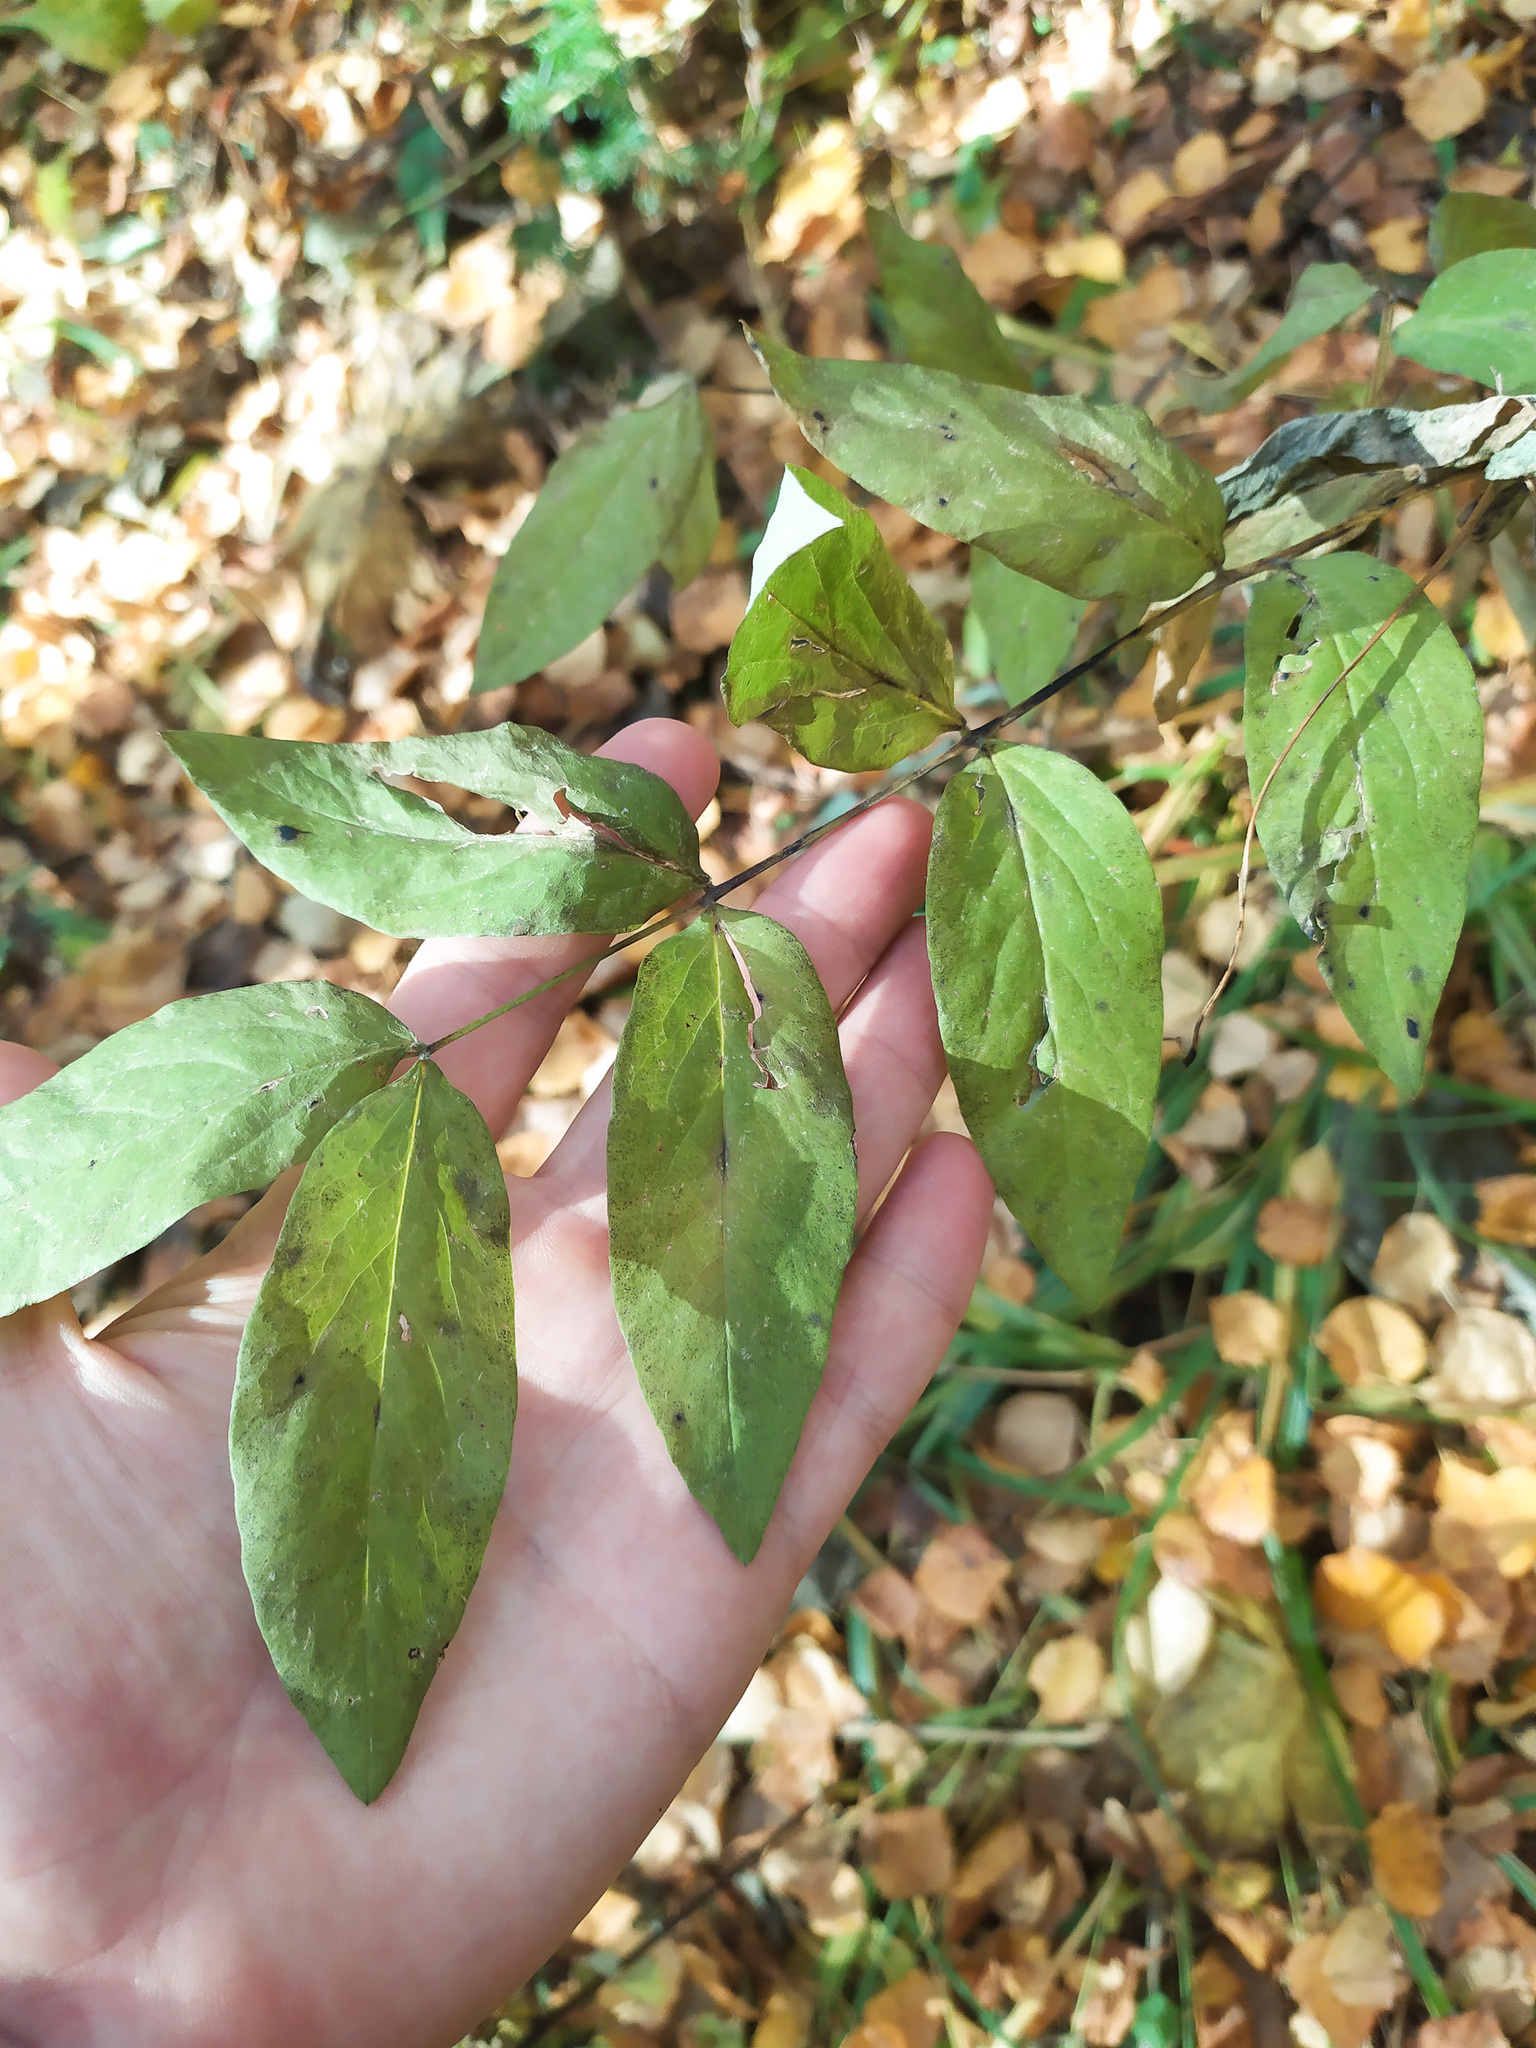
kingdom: Plantae
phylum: Tracheophyta
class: Magnoliopsida
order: Fabales
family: Fabaceae
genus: Lathyrus
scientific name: Lathyrus gmelinii
